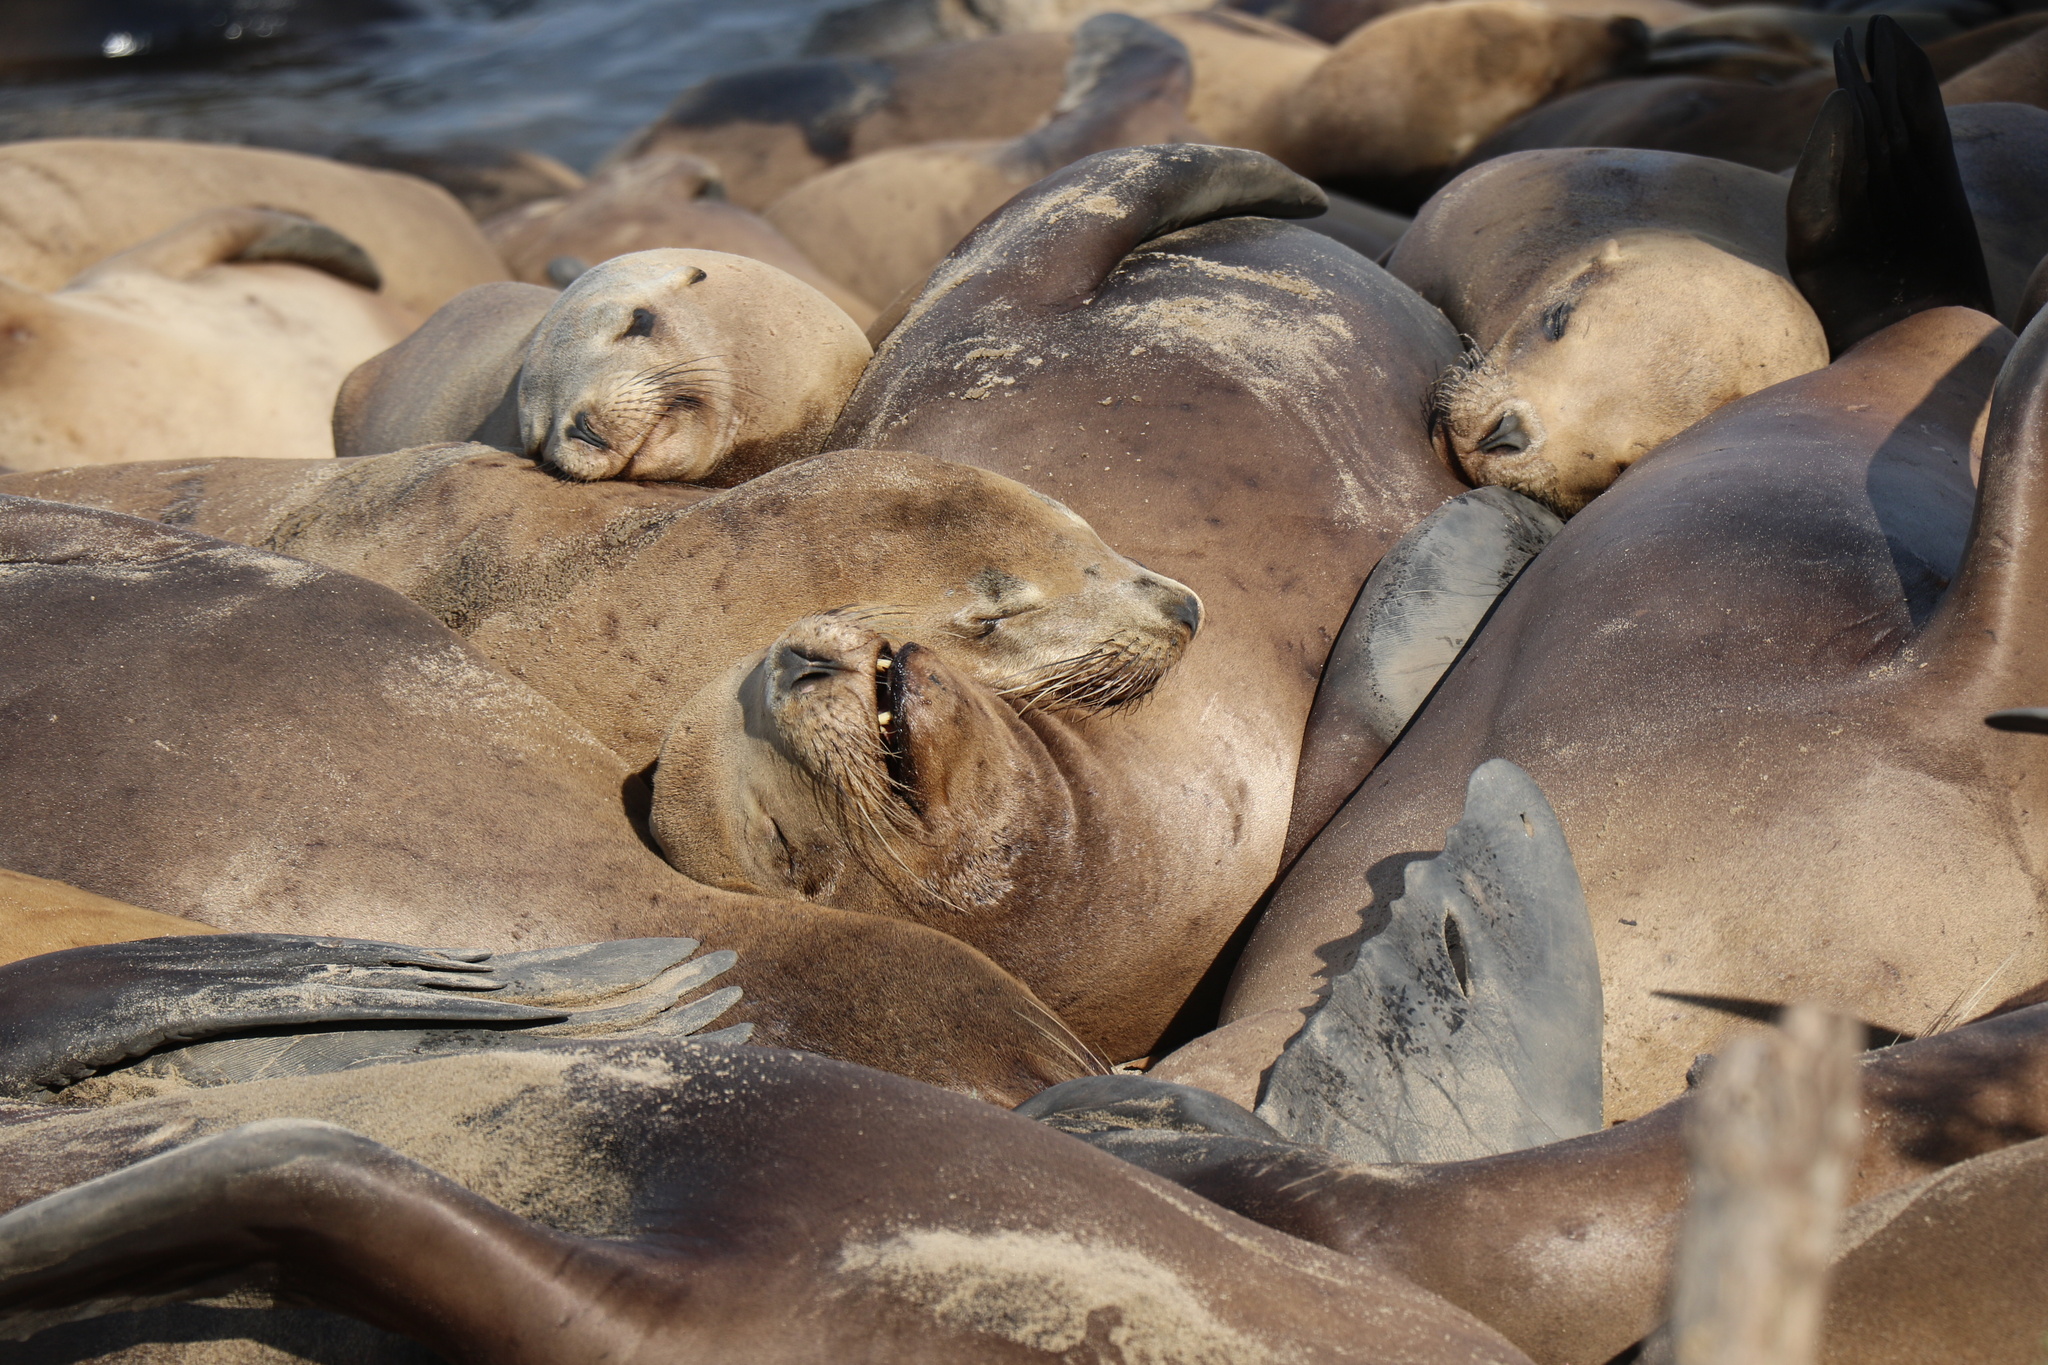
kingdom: Animalia
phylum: Chordata
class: Mammalia
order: Carnivora
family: Otariidae
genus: Zalophus
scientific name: Zalophus californianus
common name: California sea lion
